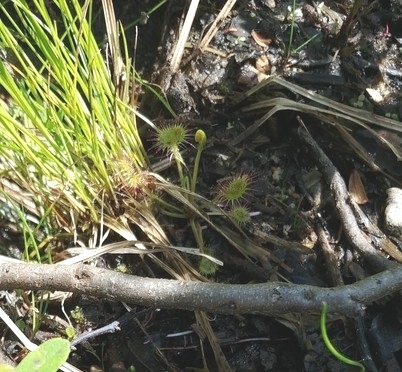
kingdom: Plantae
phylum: Tracheophyta
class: Magnoliopsida
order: Caryophyllales
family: Droseraceae
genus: Drosera
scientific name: Drosera rotundifolia
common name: Round-leaved sundew
